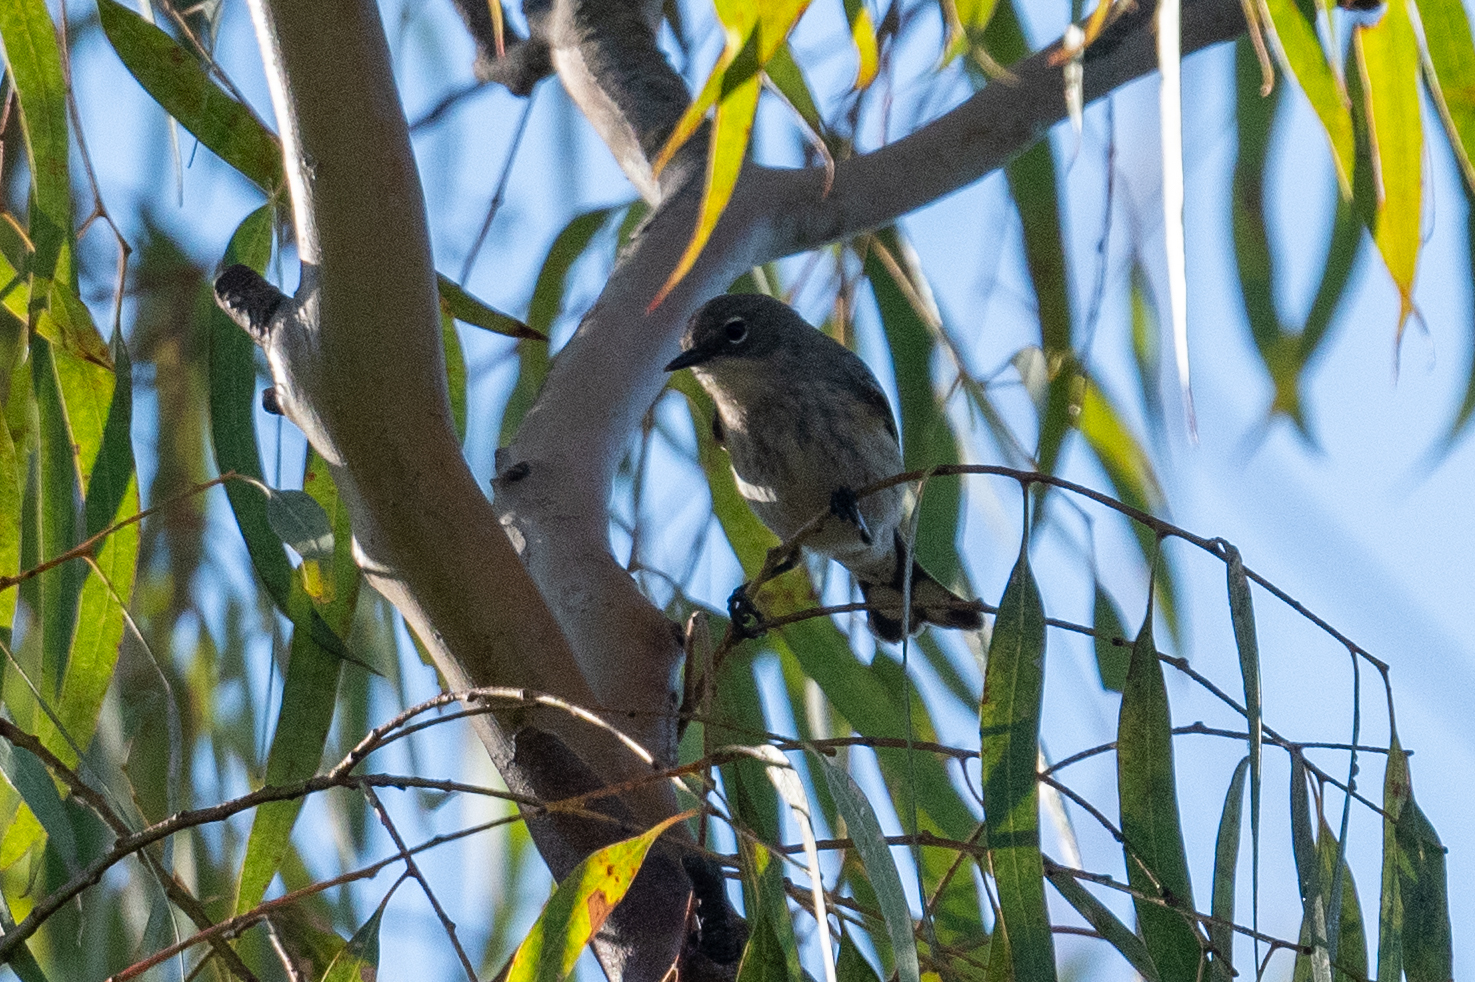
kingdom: Animalia
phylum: Chordata
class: Aves
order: Passeriformes
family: Parulidae
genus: Setophaga
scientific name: Setophaga coronata
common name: Myrtle warbler
